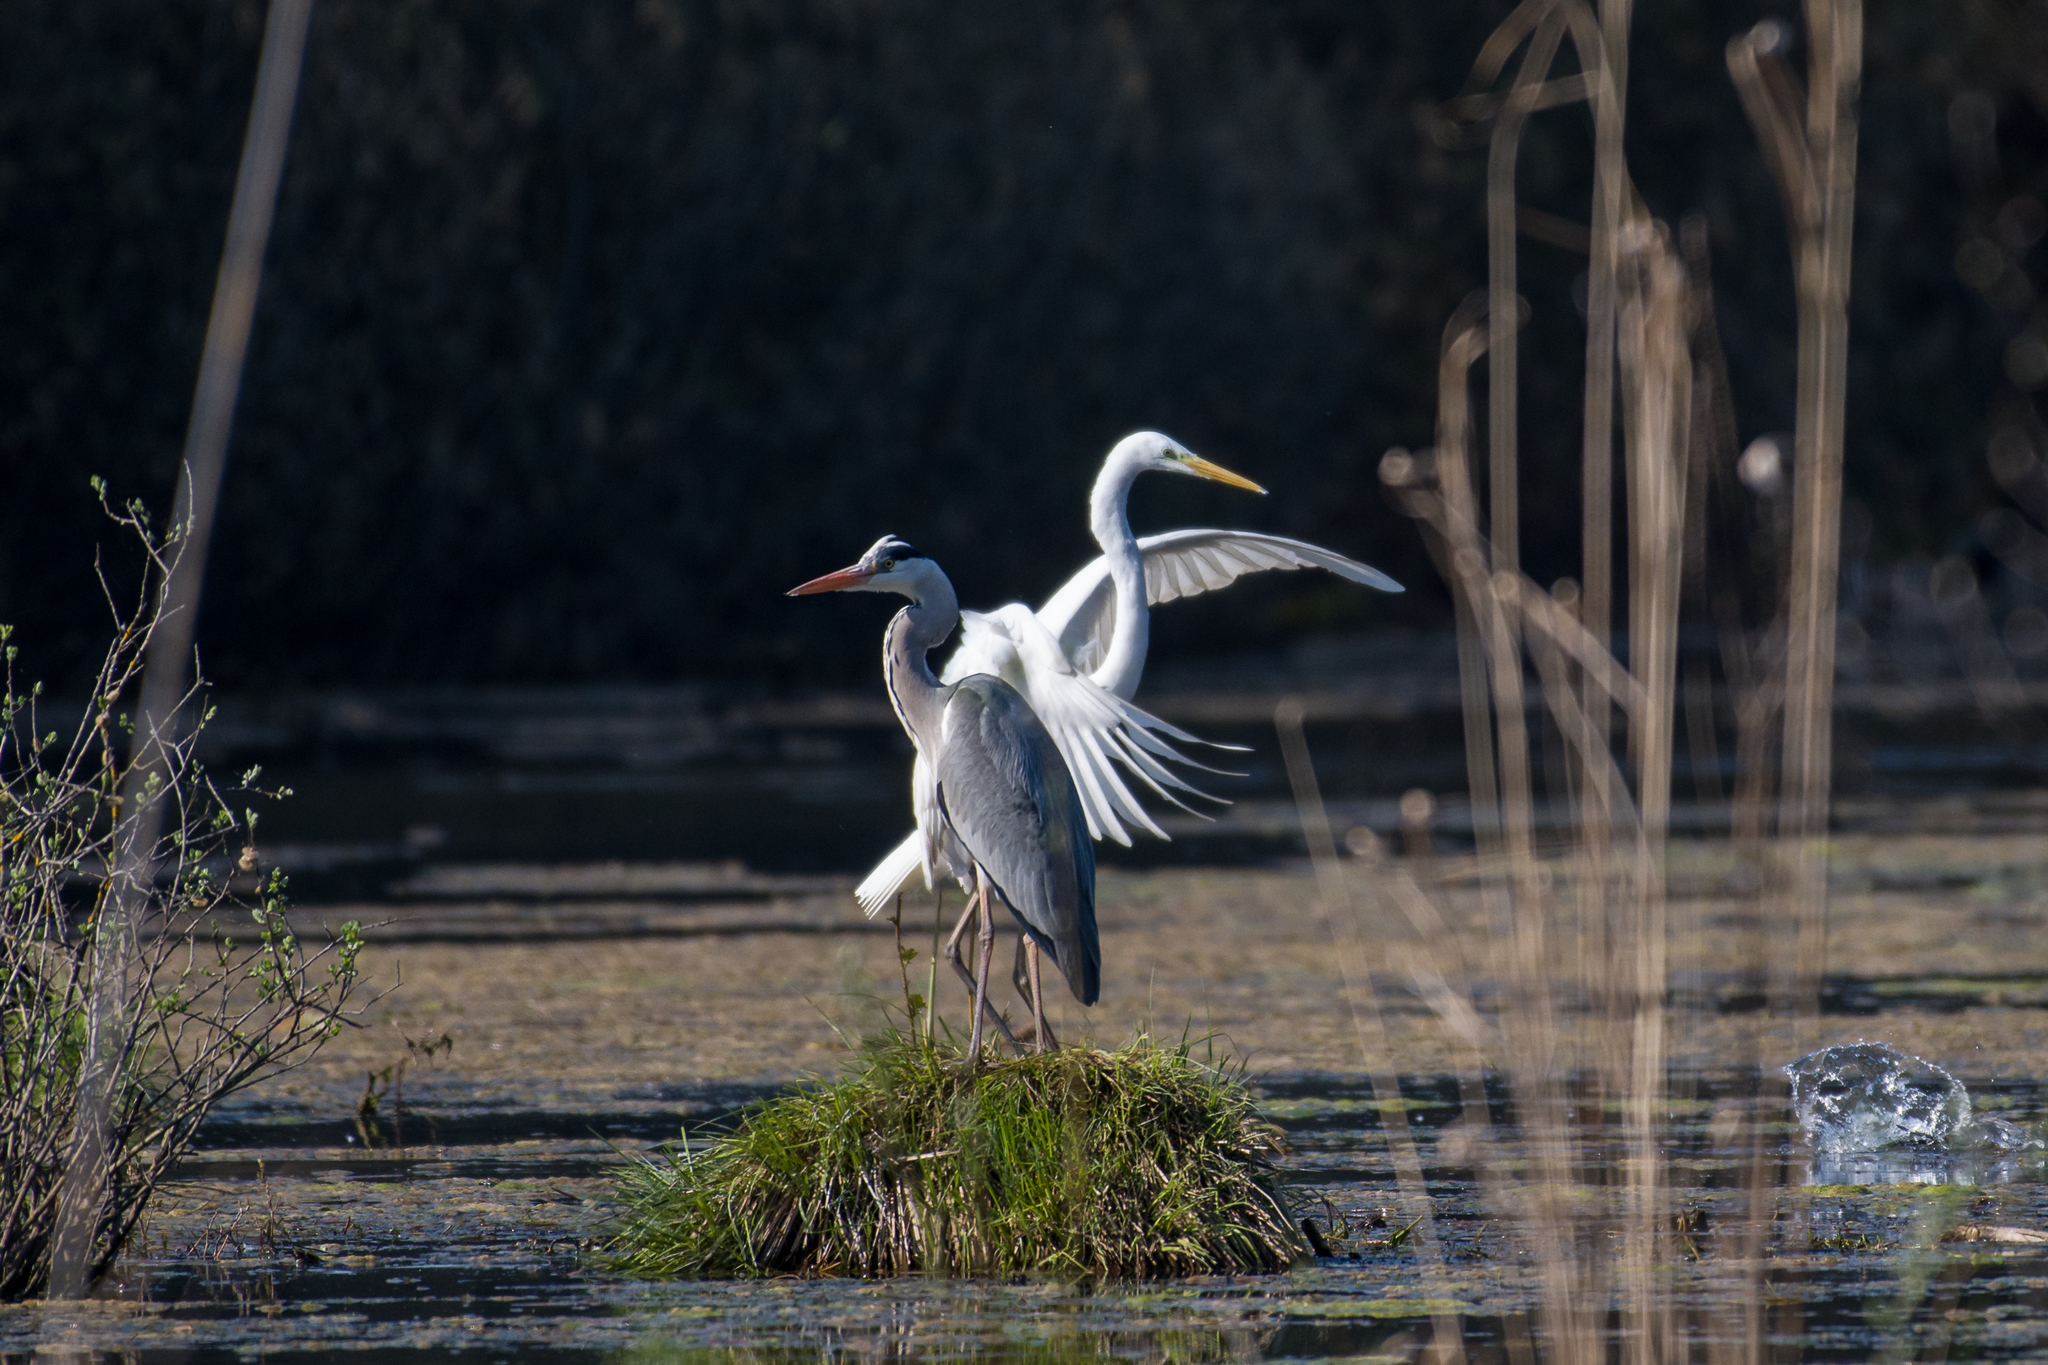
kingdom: Animalia
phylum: Chordata
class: Aves
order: Pelecaniformes
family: Ardeidae
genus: Ardea
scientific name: Ardea cinerea
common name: Grey heron
